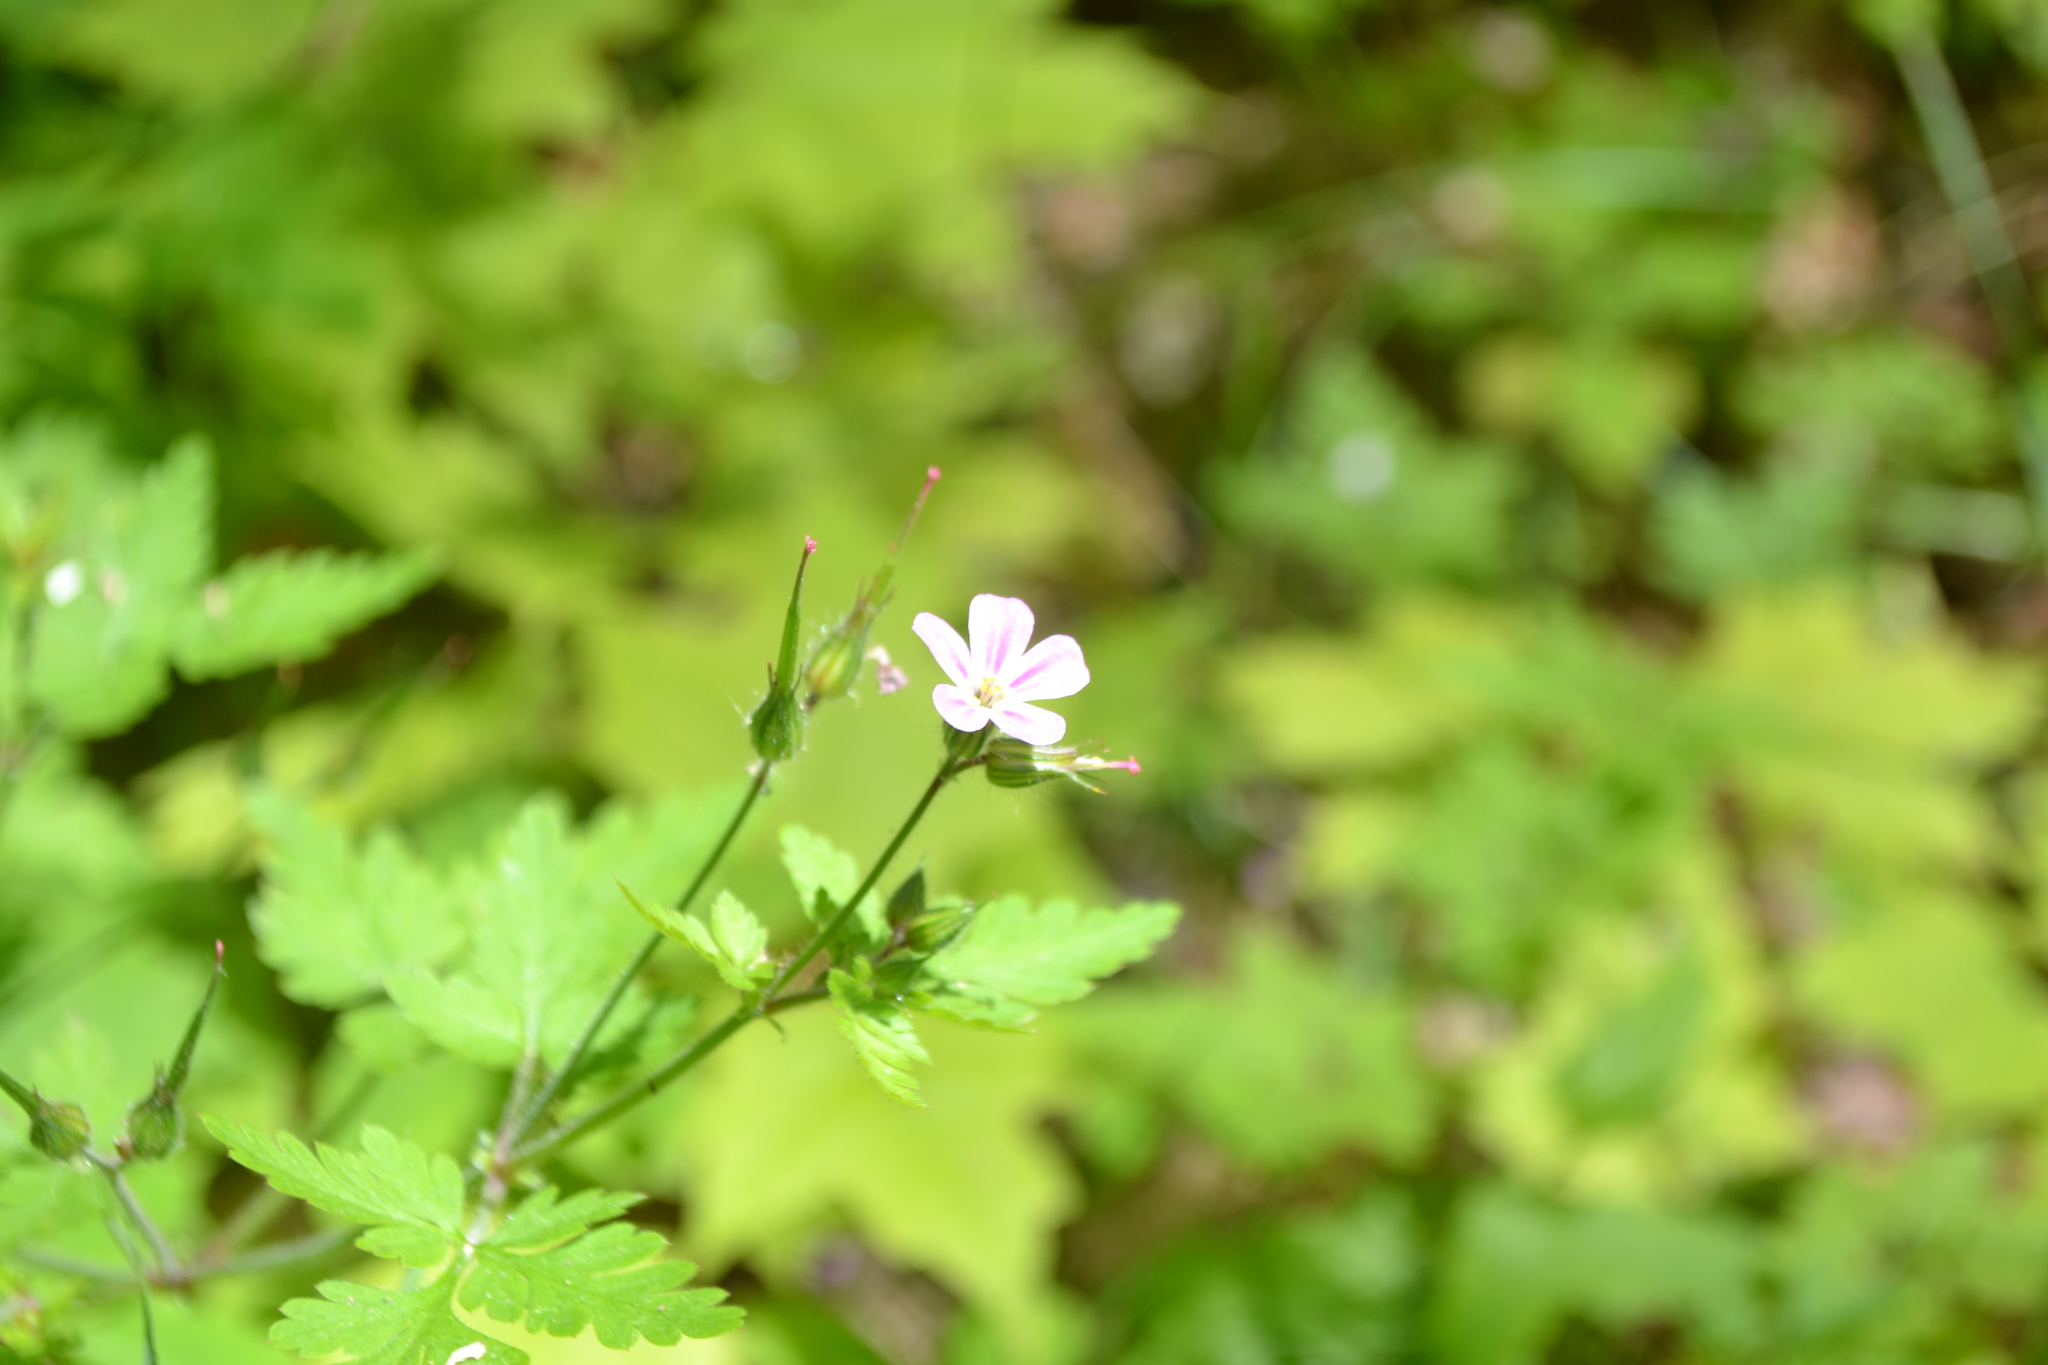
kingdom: Plantae
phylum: Tracheophyta
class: Magnoliopsida
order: Geraniales
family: Geraniaceae
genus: Geranium
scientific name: Geranium robertianum
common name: Herb-robert
